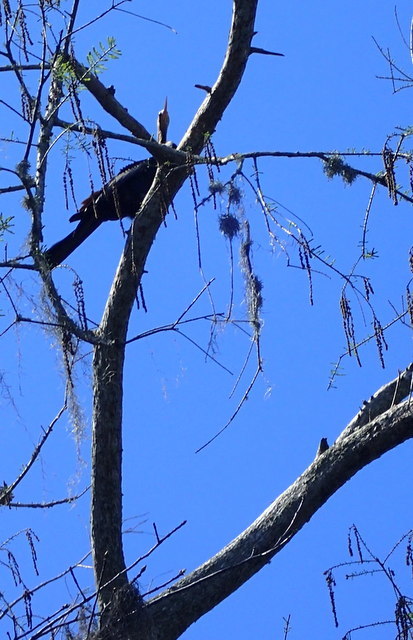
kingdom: Animalia
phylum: Chordata
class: Aves
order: Suliformes
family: Anhingidae
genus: Anhinga
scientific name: Anhinga anhinga
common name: Anhinga
